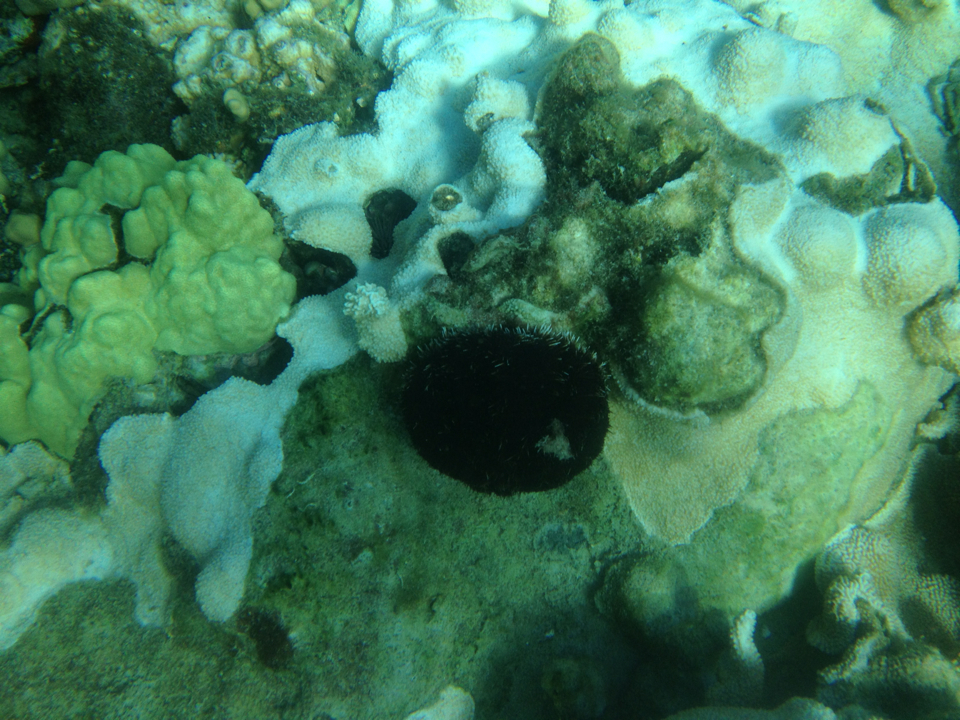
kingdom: Animalia
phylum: Echinodermata
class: Echinoidea
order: Camarodonta
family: Toxopneustidae
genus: Tripneustes
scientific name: Tripneustes gratilla
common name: Bischofsmützenseeigel
